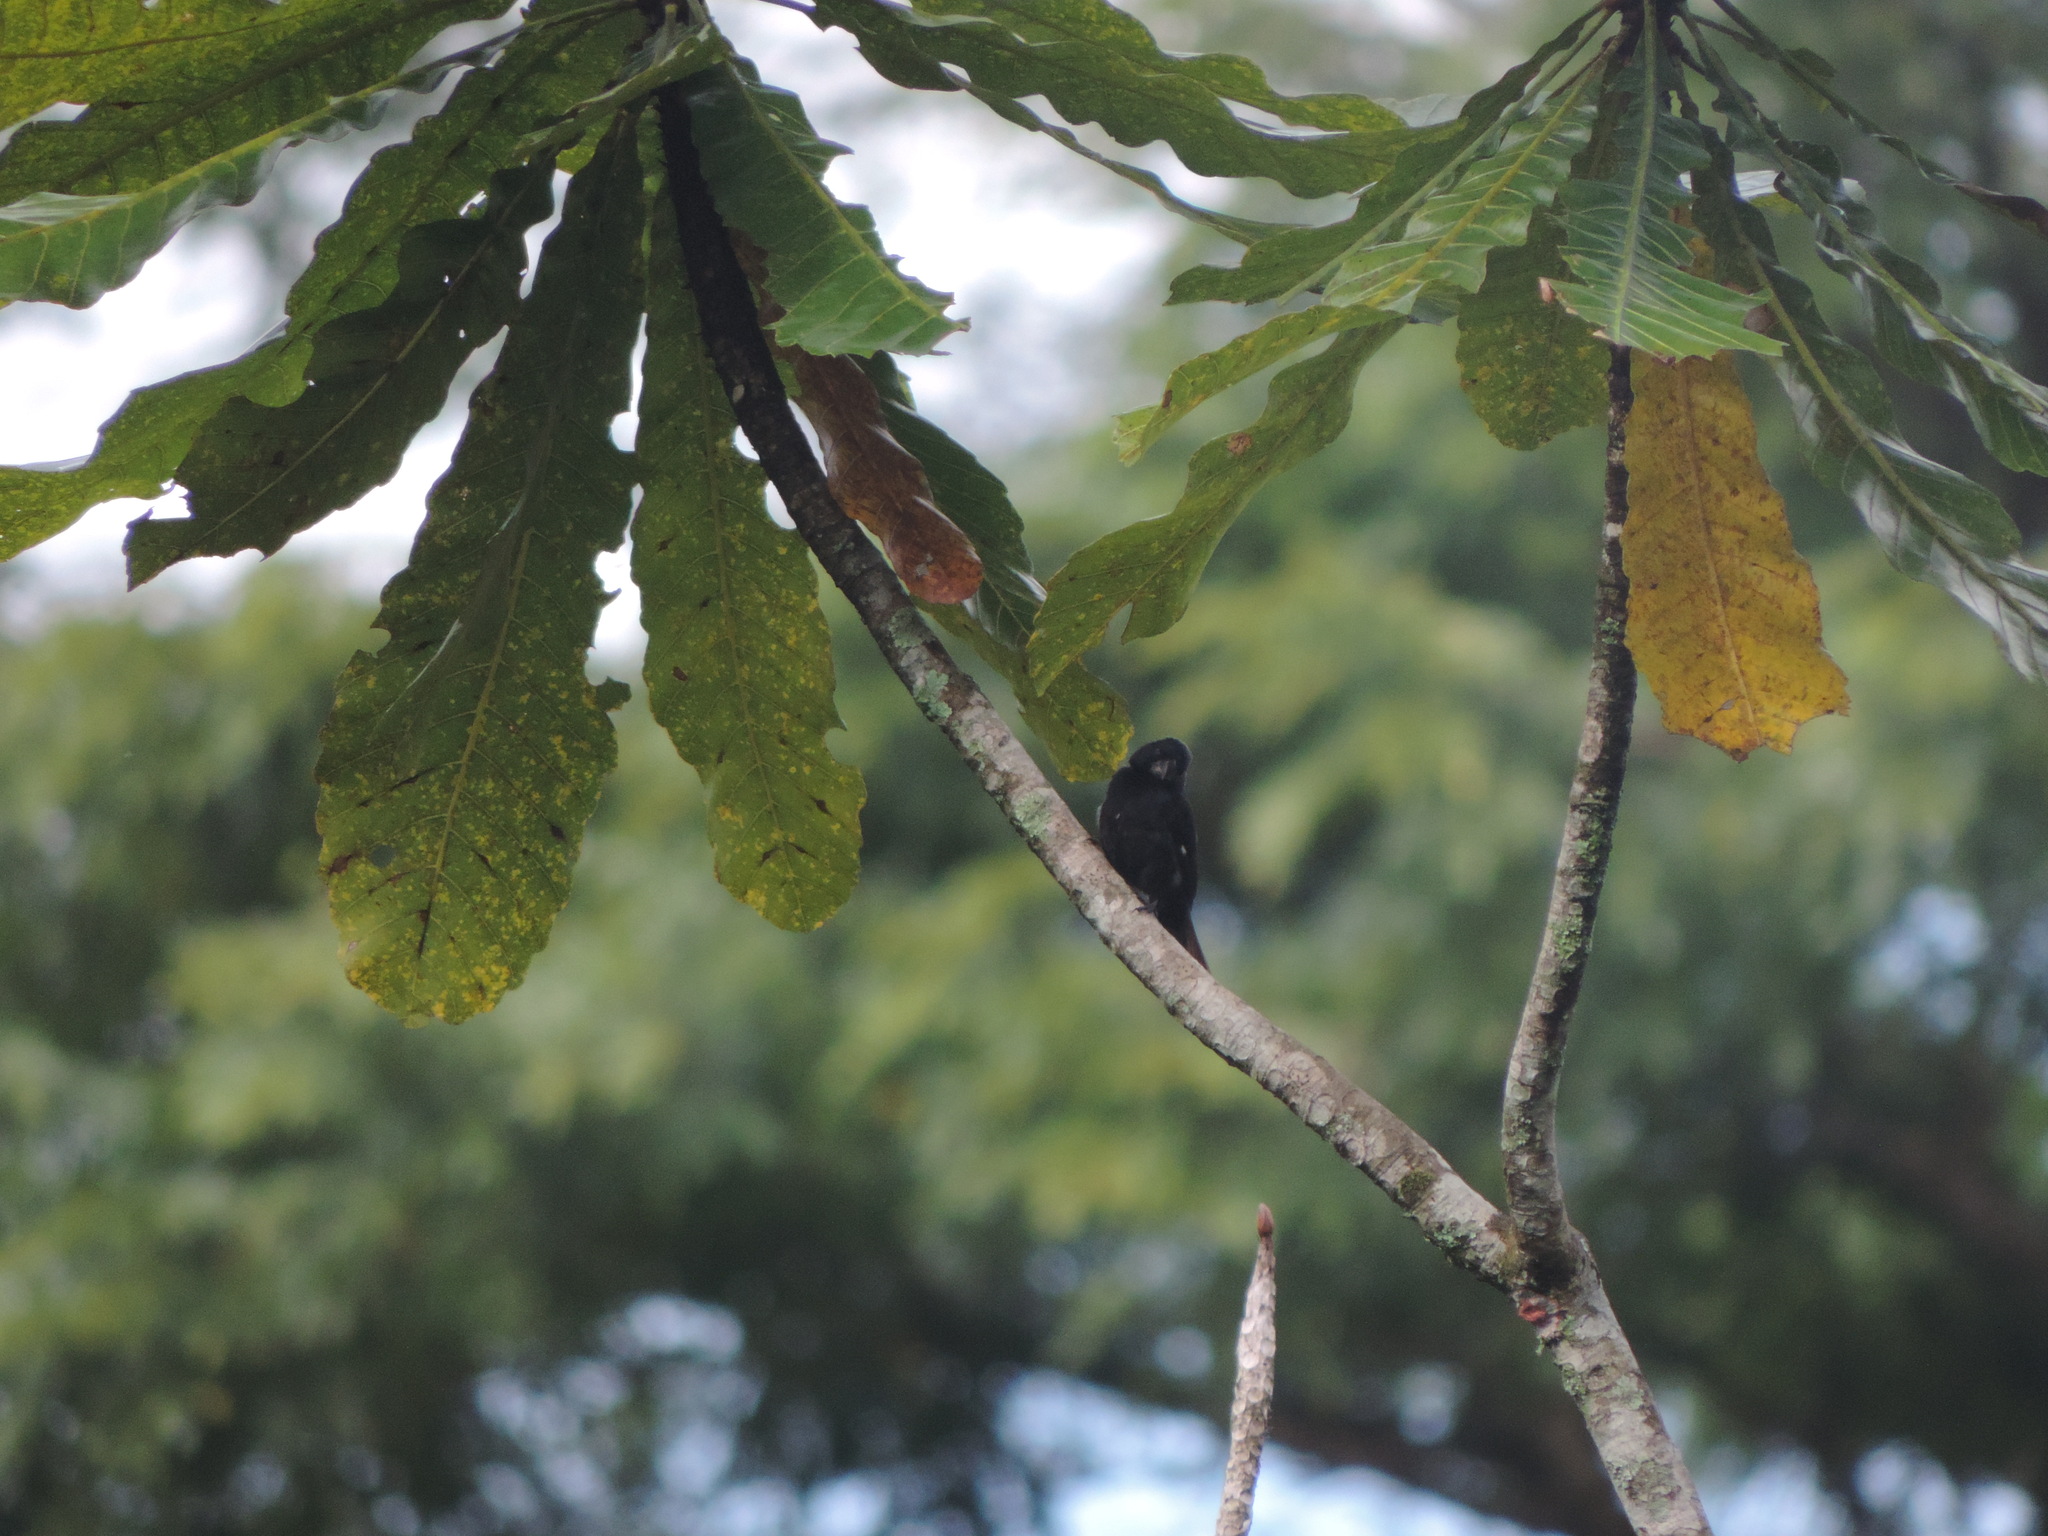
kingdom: Animalia
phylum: Chordata
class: Aves
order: Passeriformes
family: Thraupidae
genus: Sporophila
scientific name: Sporophila funerea
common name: Thick-billed seed-finch
